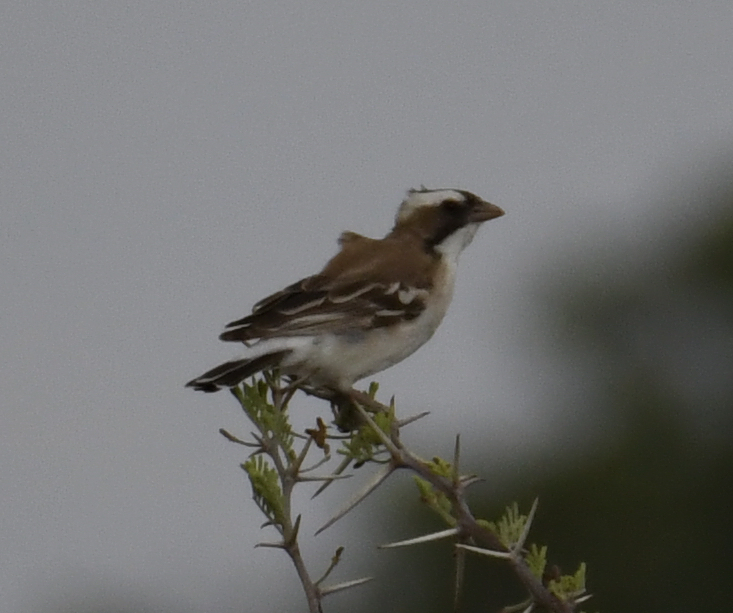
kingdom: Animalia
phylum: Chordata
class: Aves
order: Passeriformes
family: Passeridae
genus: Plocepasser
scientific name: Plocepasser mahali
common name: White-browed sparrow-weaver
